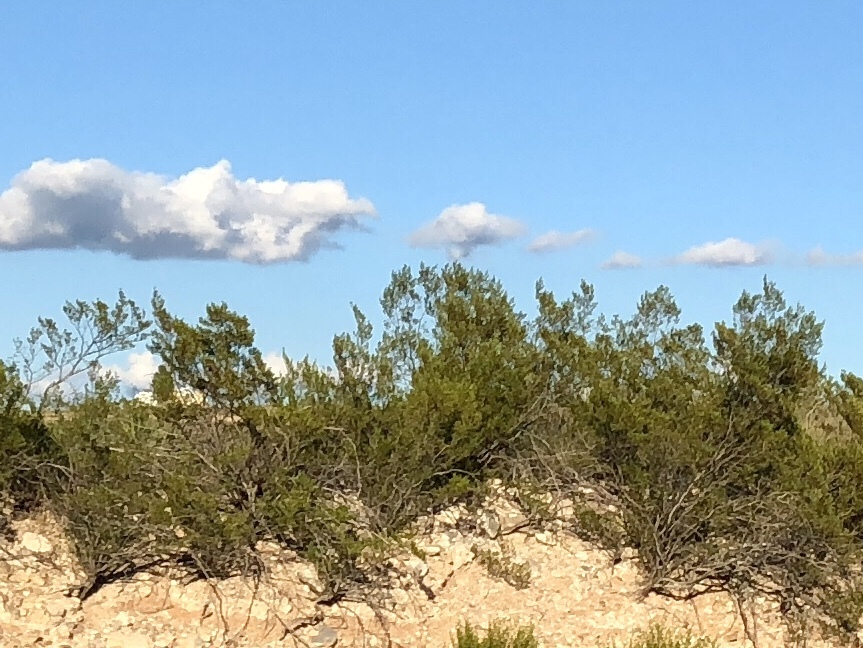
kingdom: Plantae
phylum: Tracheophyta
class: Magnoliopsida
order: Zygophyllales
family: Zygophyllaceae
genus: Larrea
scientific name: Larrea tridentata
